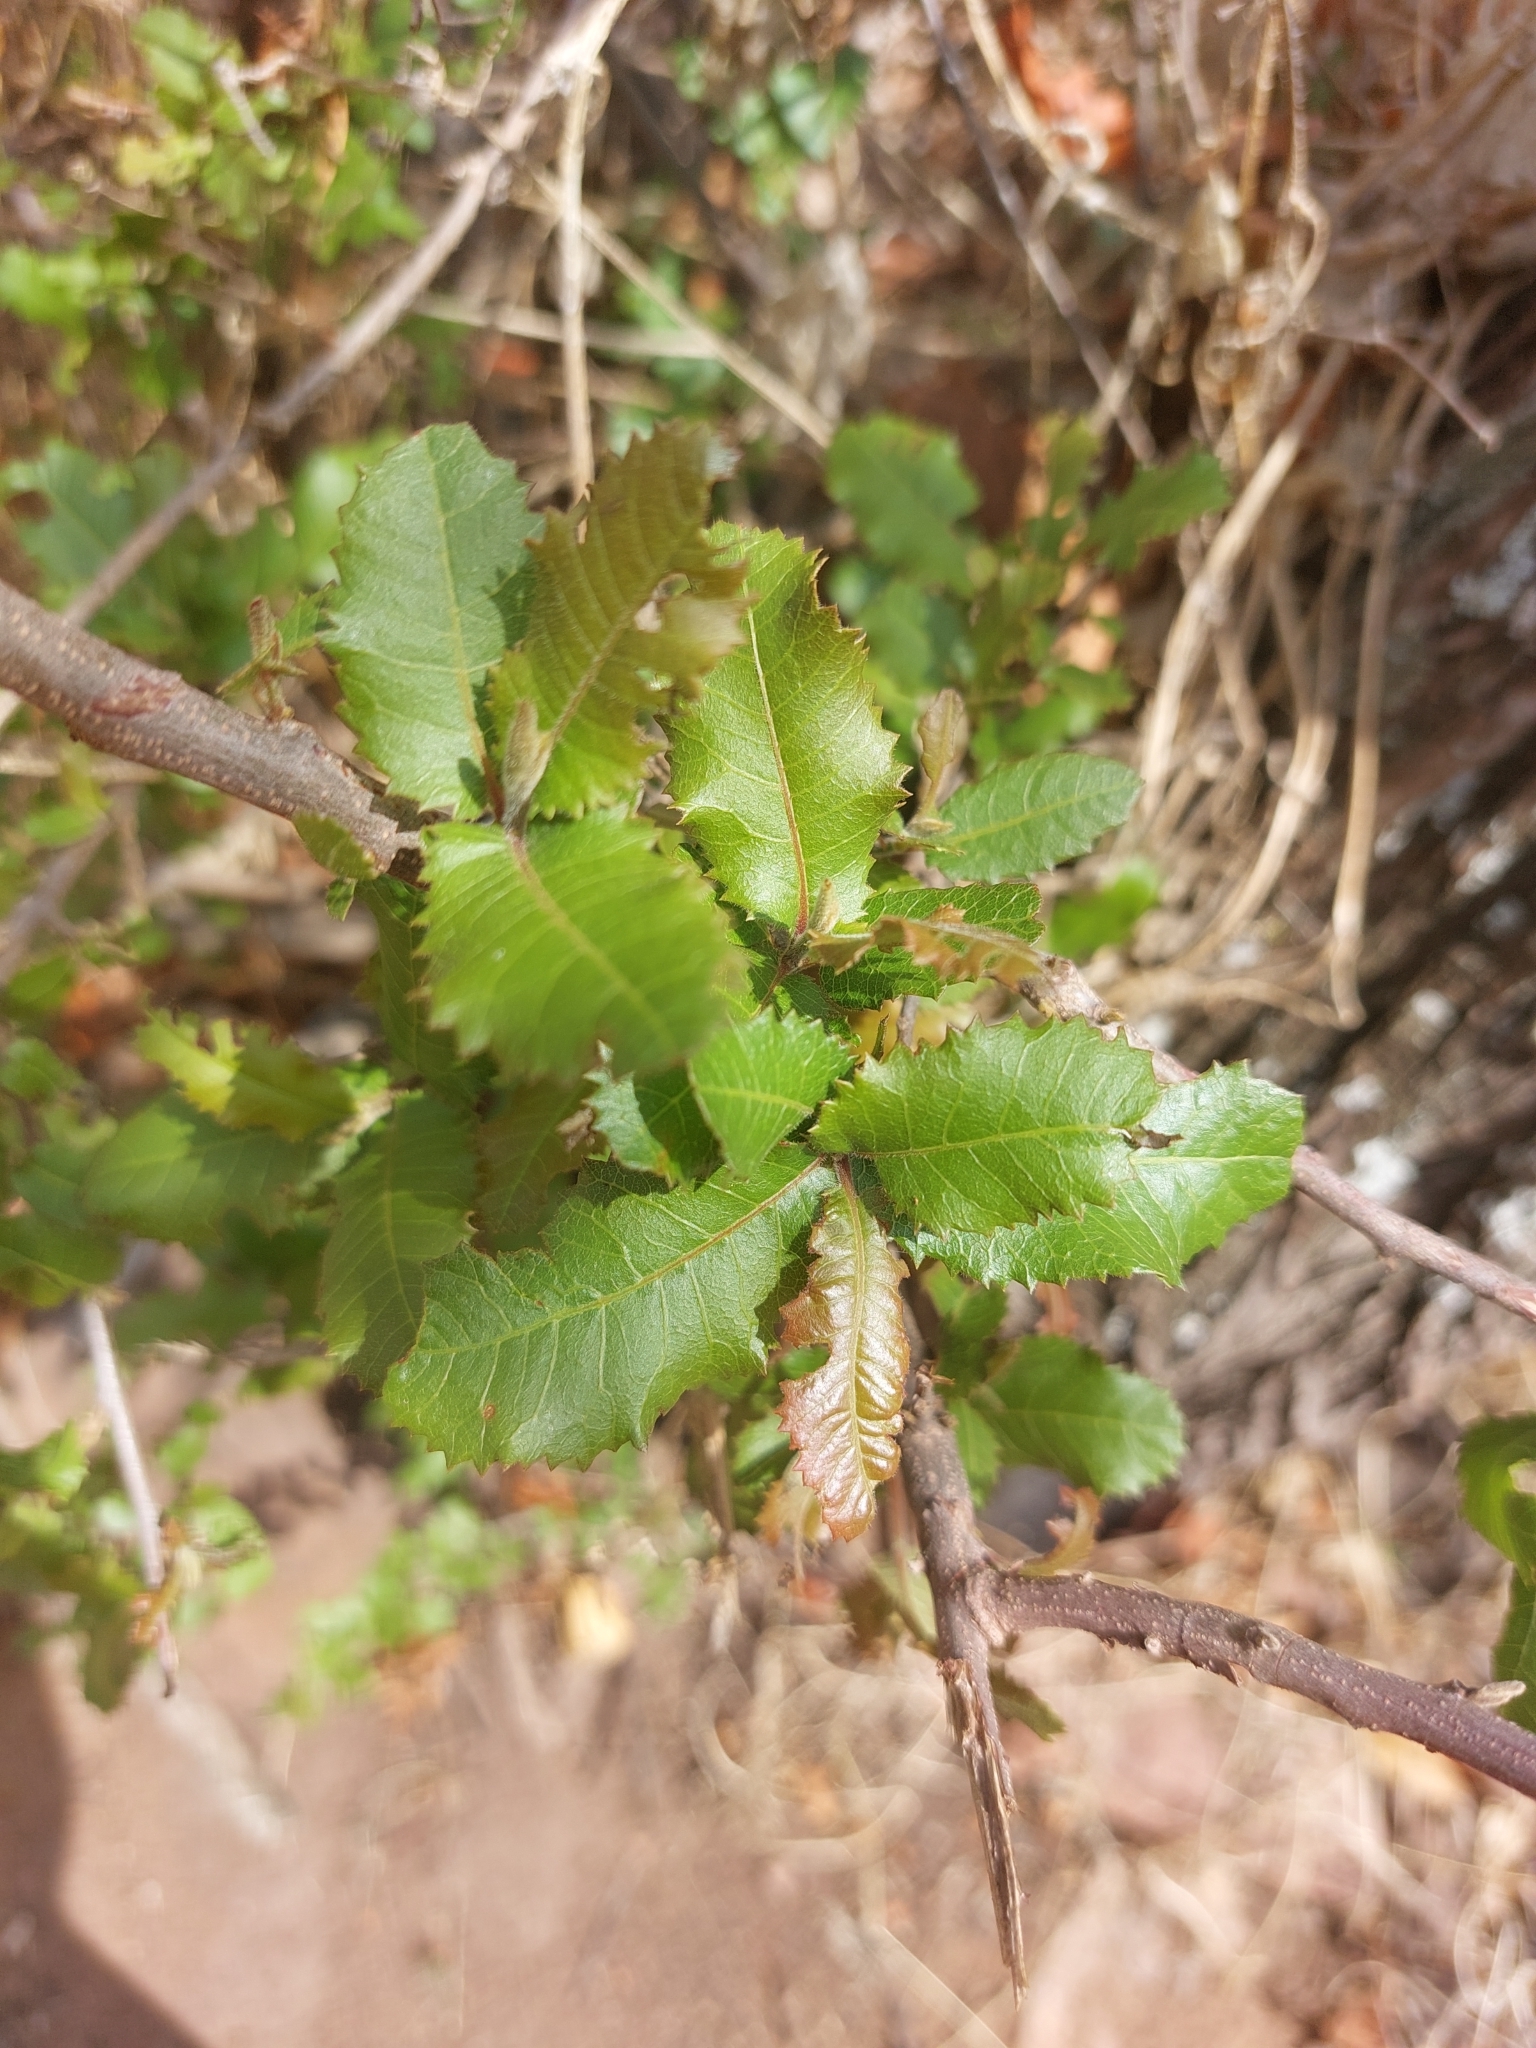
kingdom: Plantae
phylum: Tracheophyta
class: Magnoliopsida
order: Sapindales
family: Sapindaceae
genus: Pappea
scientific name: Pappea capensis
